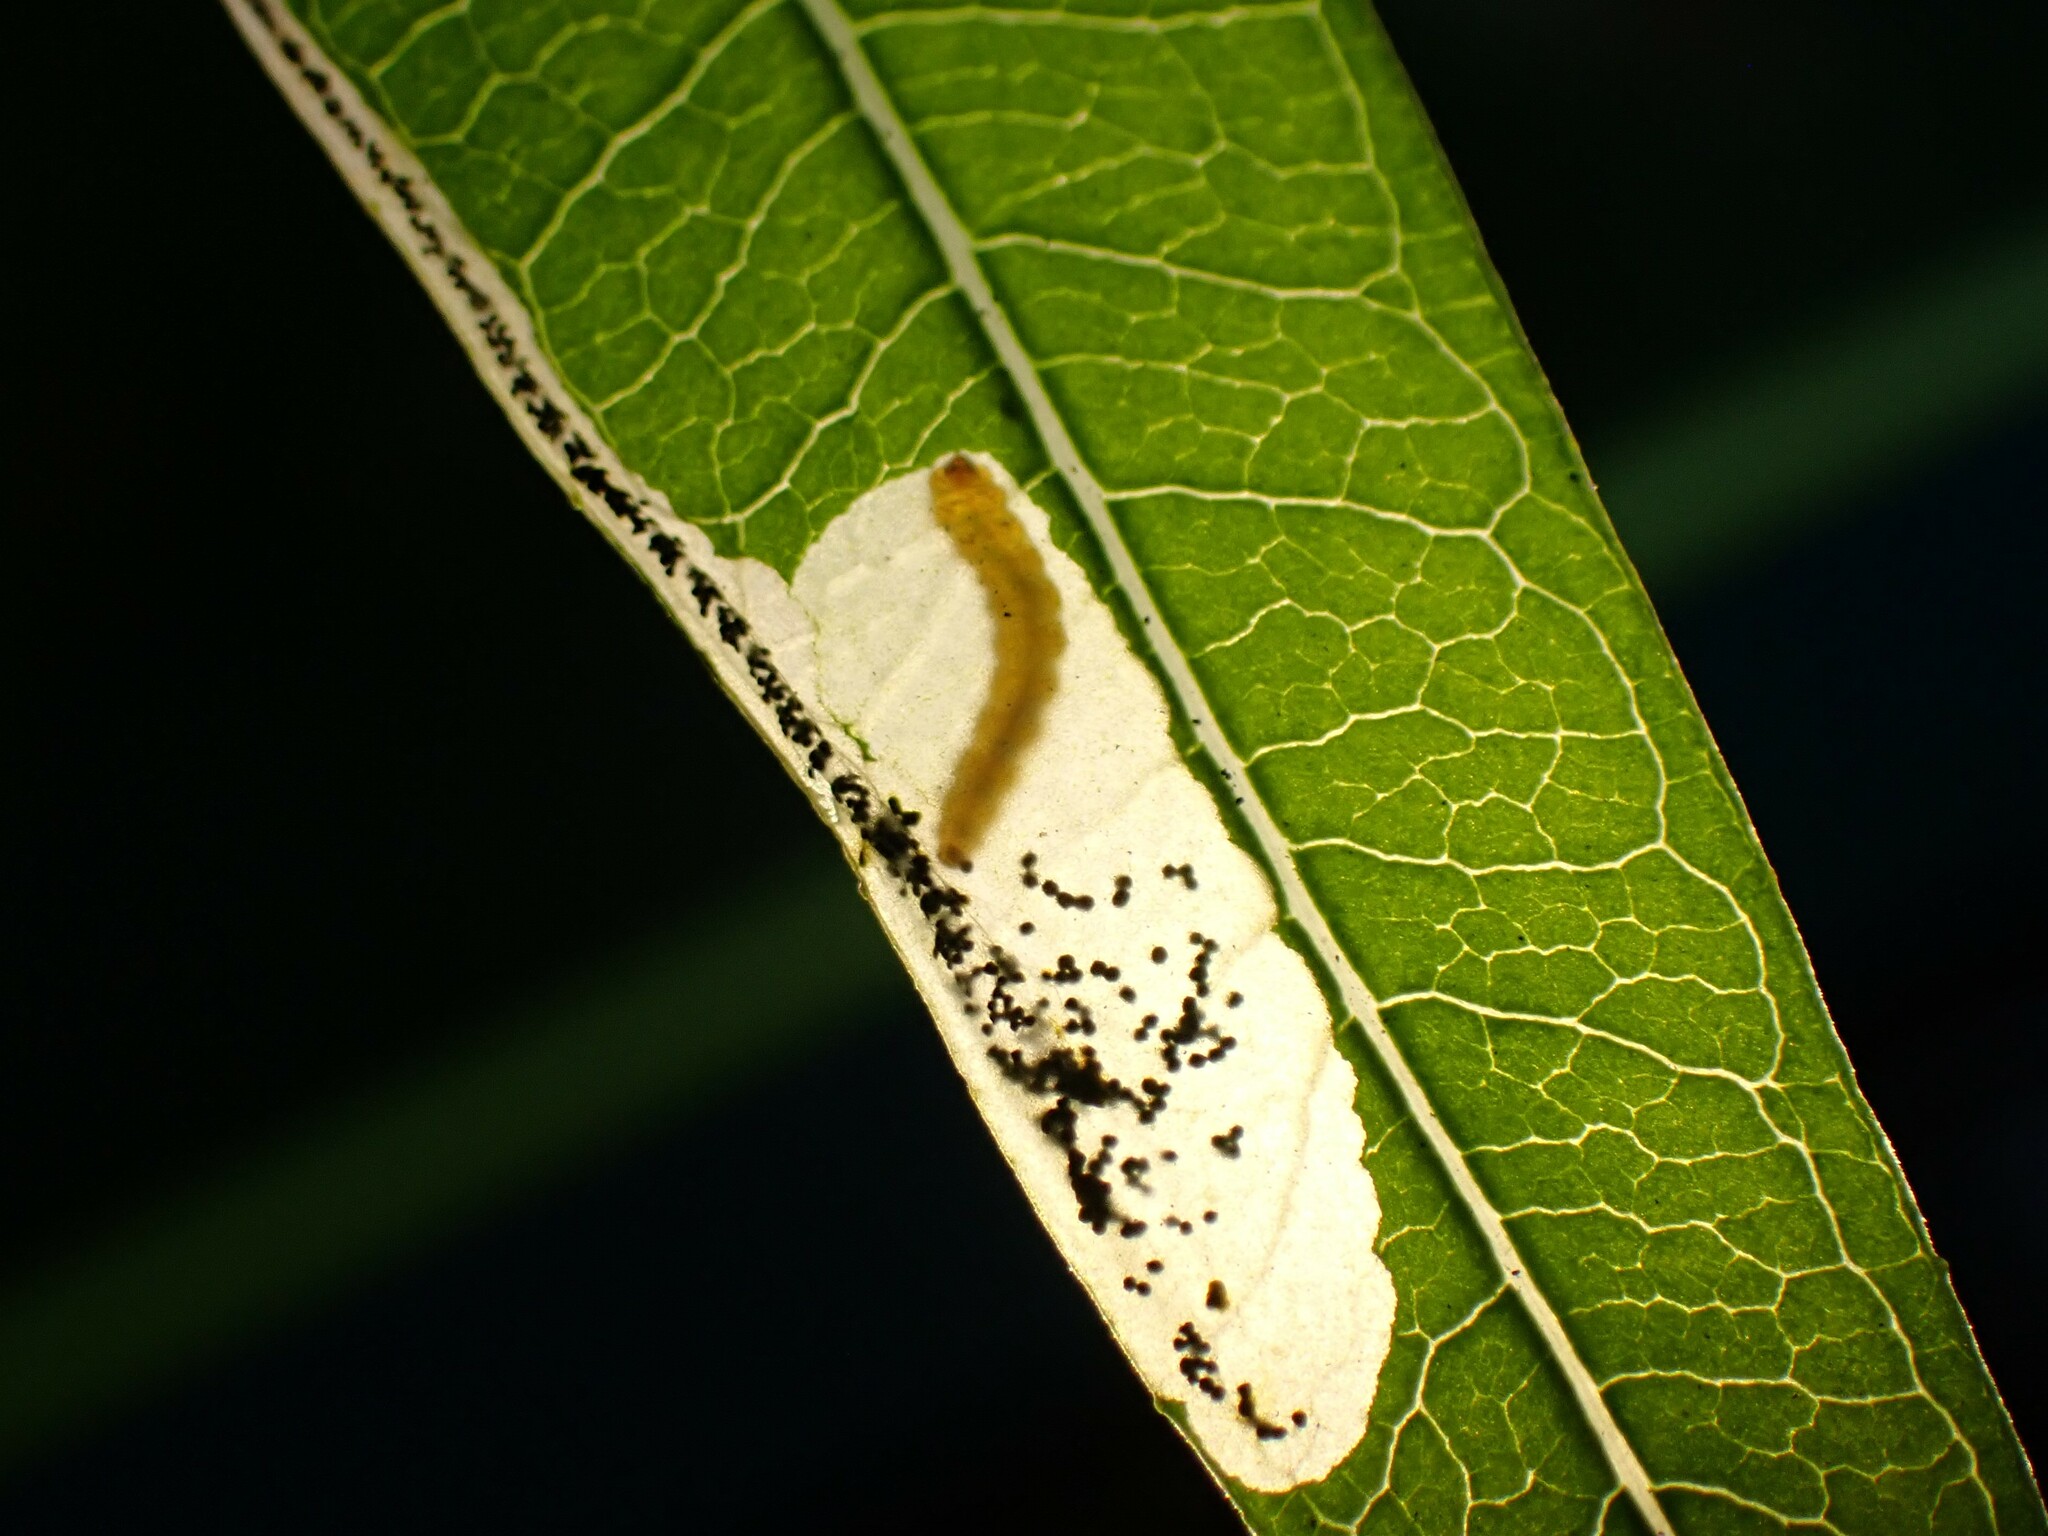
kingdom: Animalia
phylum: Arthropoda
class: Insecta
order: Lepidoptera
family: Momphidae
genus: Mompha
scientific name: Mompha raschkiella
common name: Little cosmet
